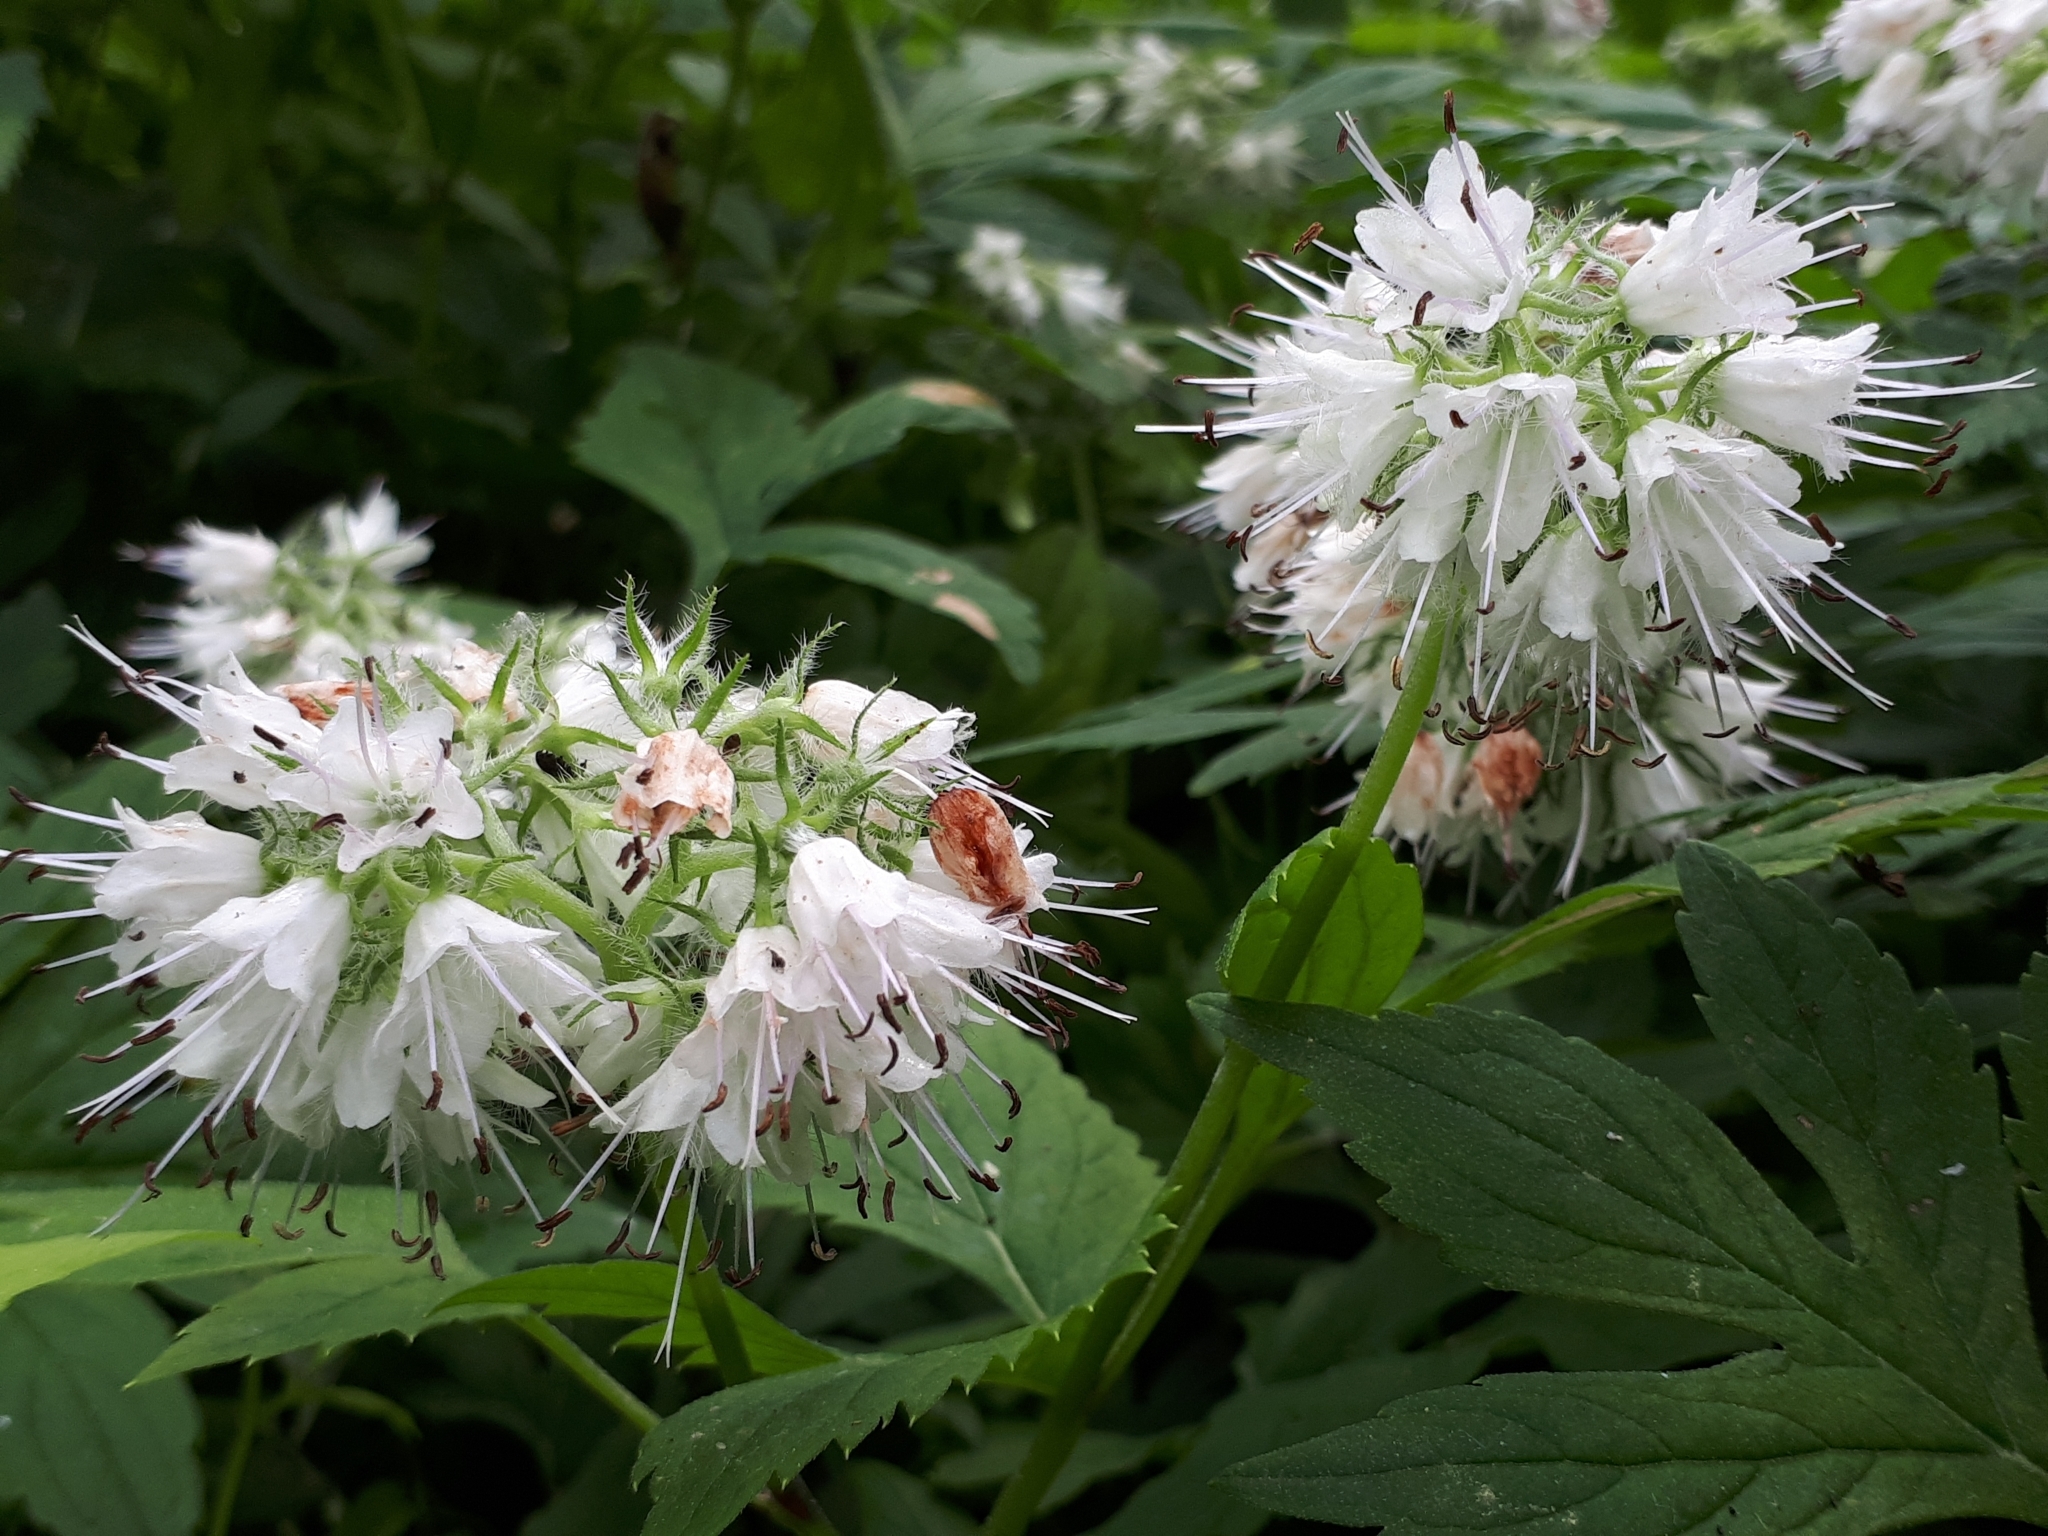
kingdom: Plantae
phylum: Tracheophyta
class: Magnoliopsida
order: Boraginales
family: Hydrophyllaceae
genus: Hydrophyllum
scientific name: Hydrophyllum virginianum
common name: Virginia waterleaf
